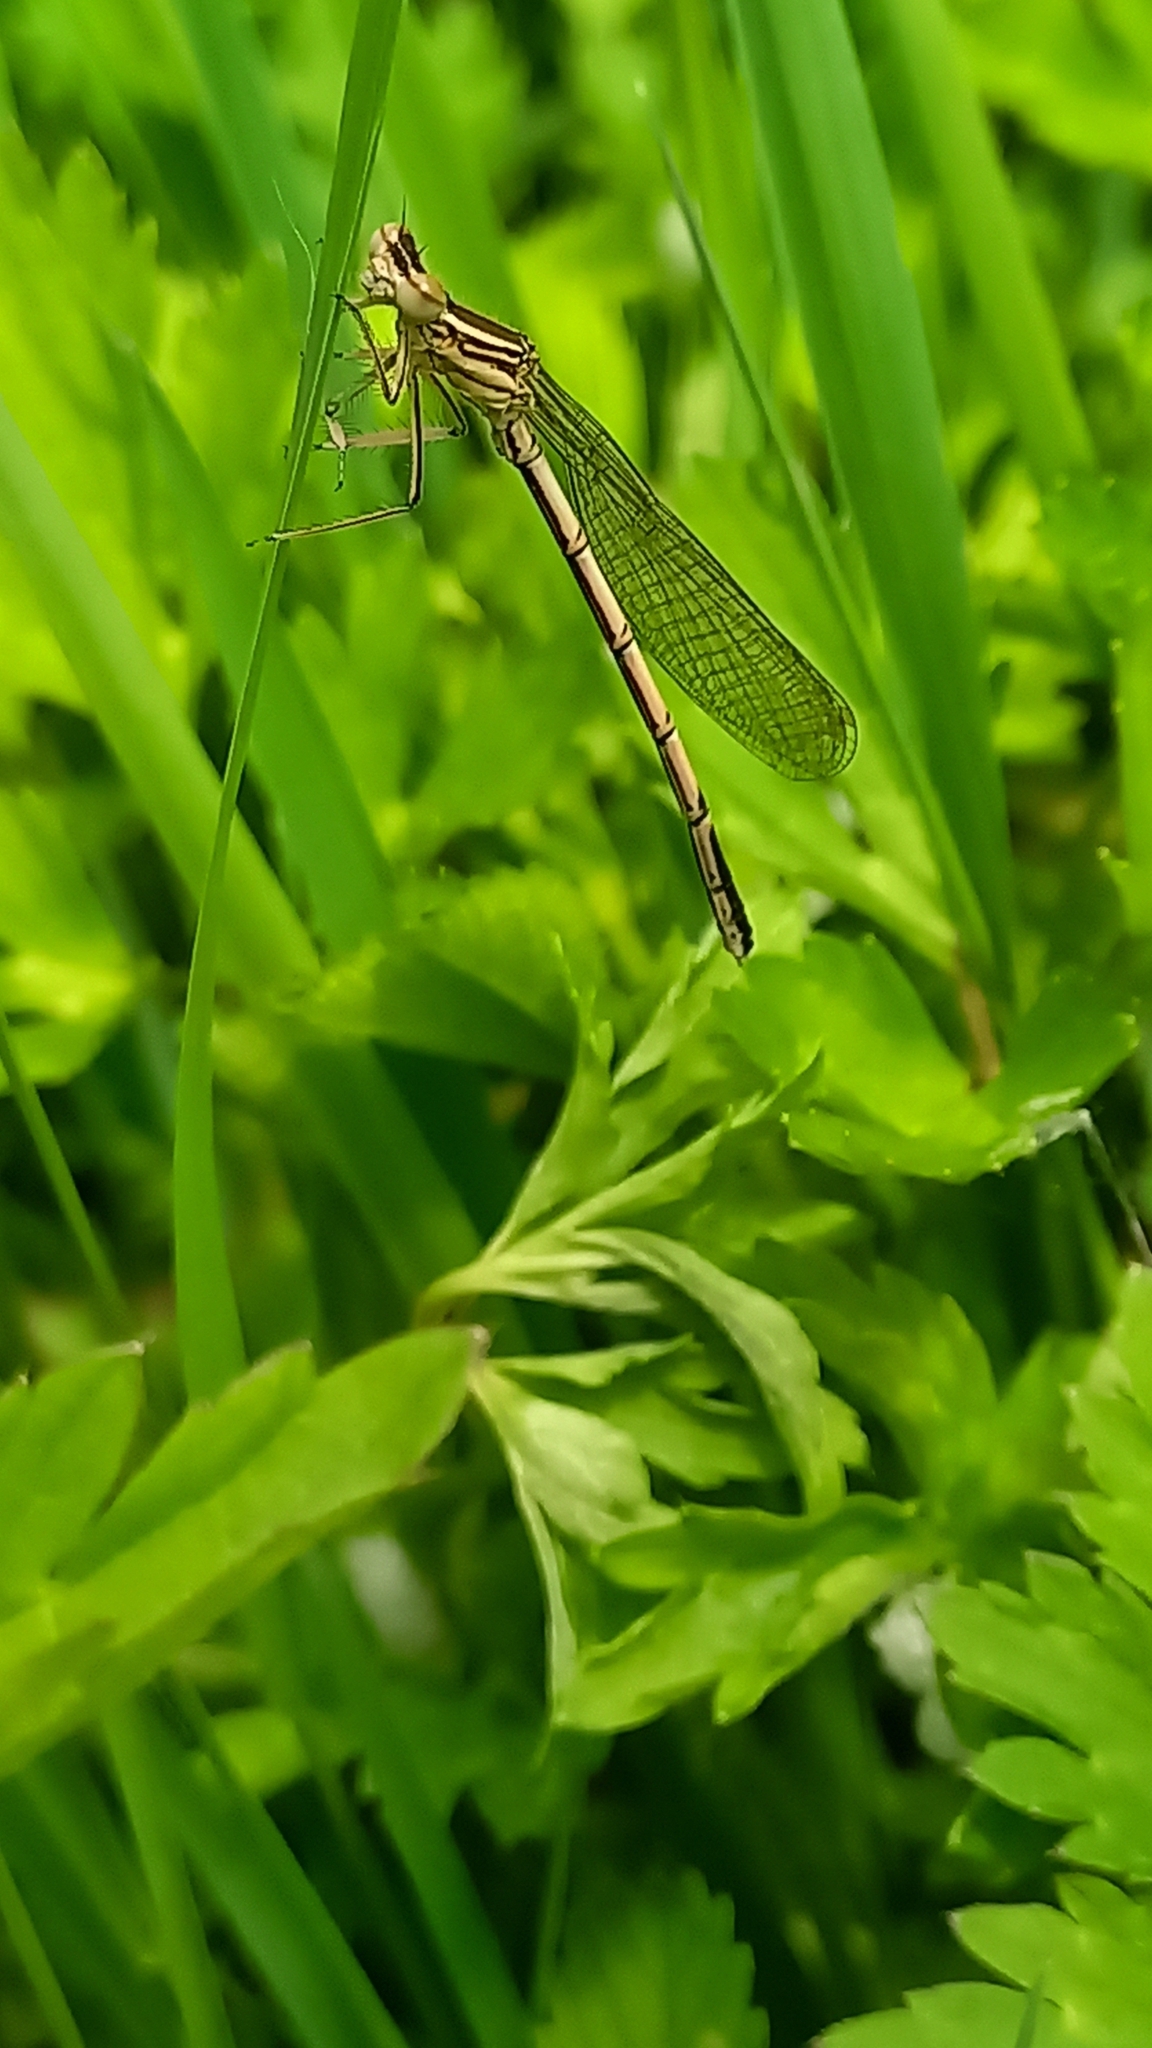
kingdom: Animalia
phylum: Arthropoda
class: Insecta
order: Odonata
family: Platycnemididae
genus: Platycnemis
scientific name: Platycnemis pennipes
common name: White-legged damselfly
